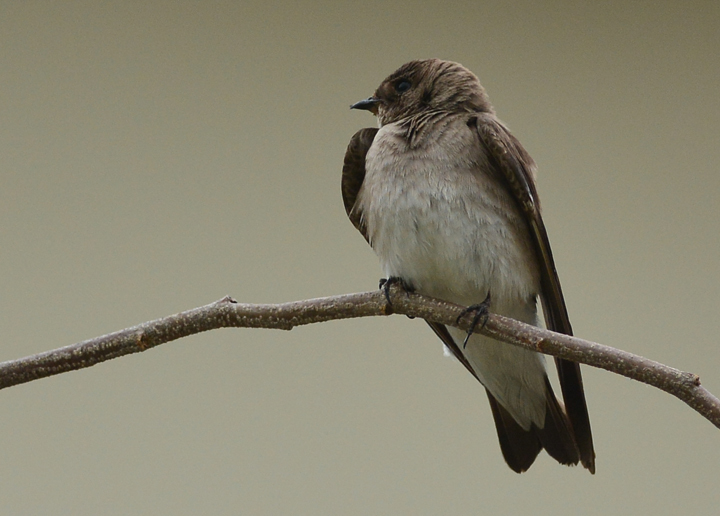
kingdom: Animalia
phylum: Chordata
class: Aves
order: Passeriformes
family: Hirundinidae
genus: Stelgidopteryx
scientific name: Stelgidopteryx serripennis
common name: Northern rough-winged swallow
